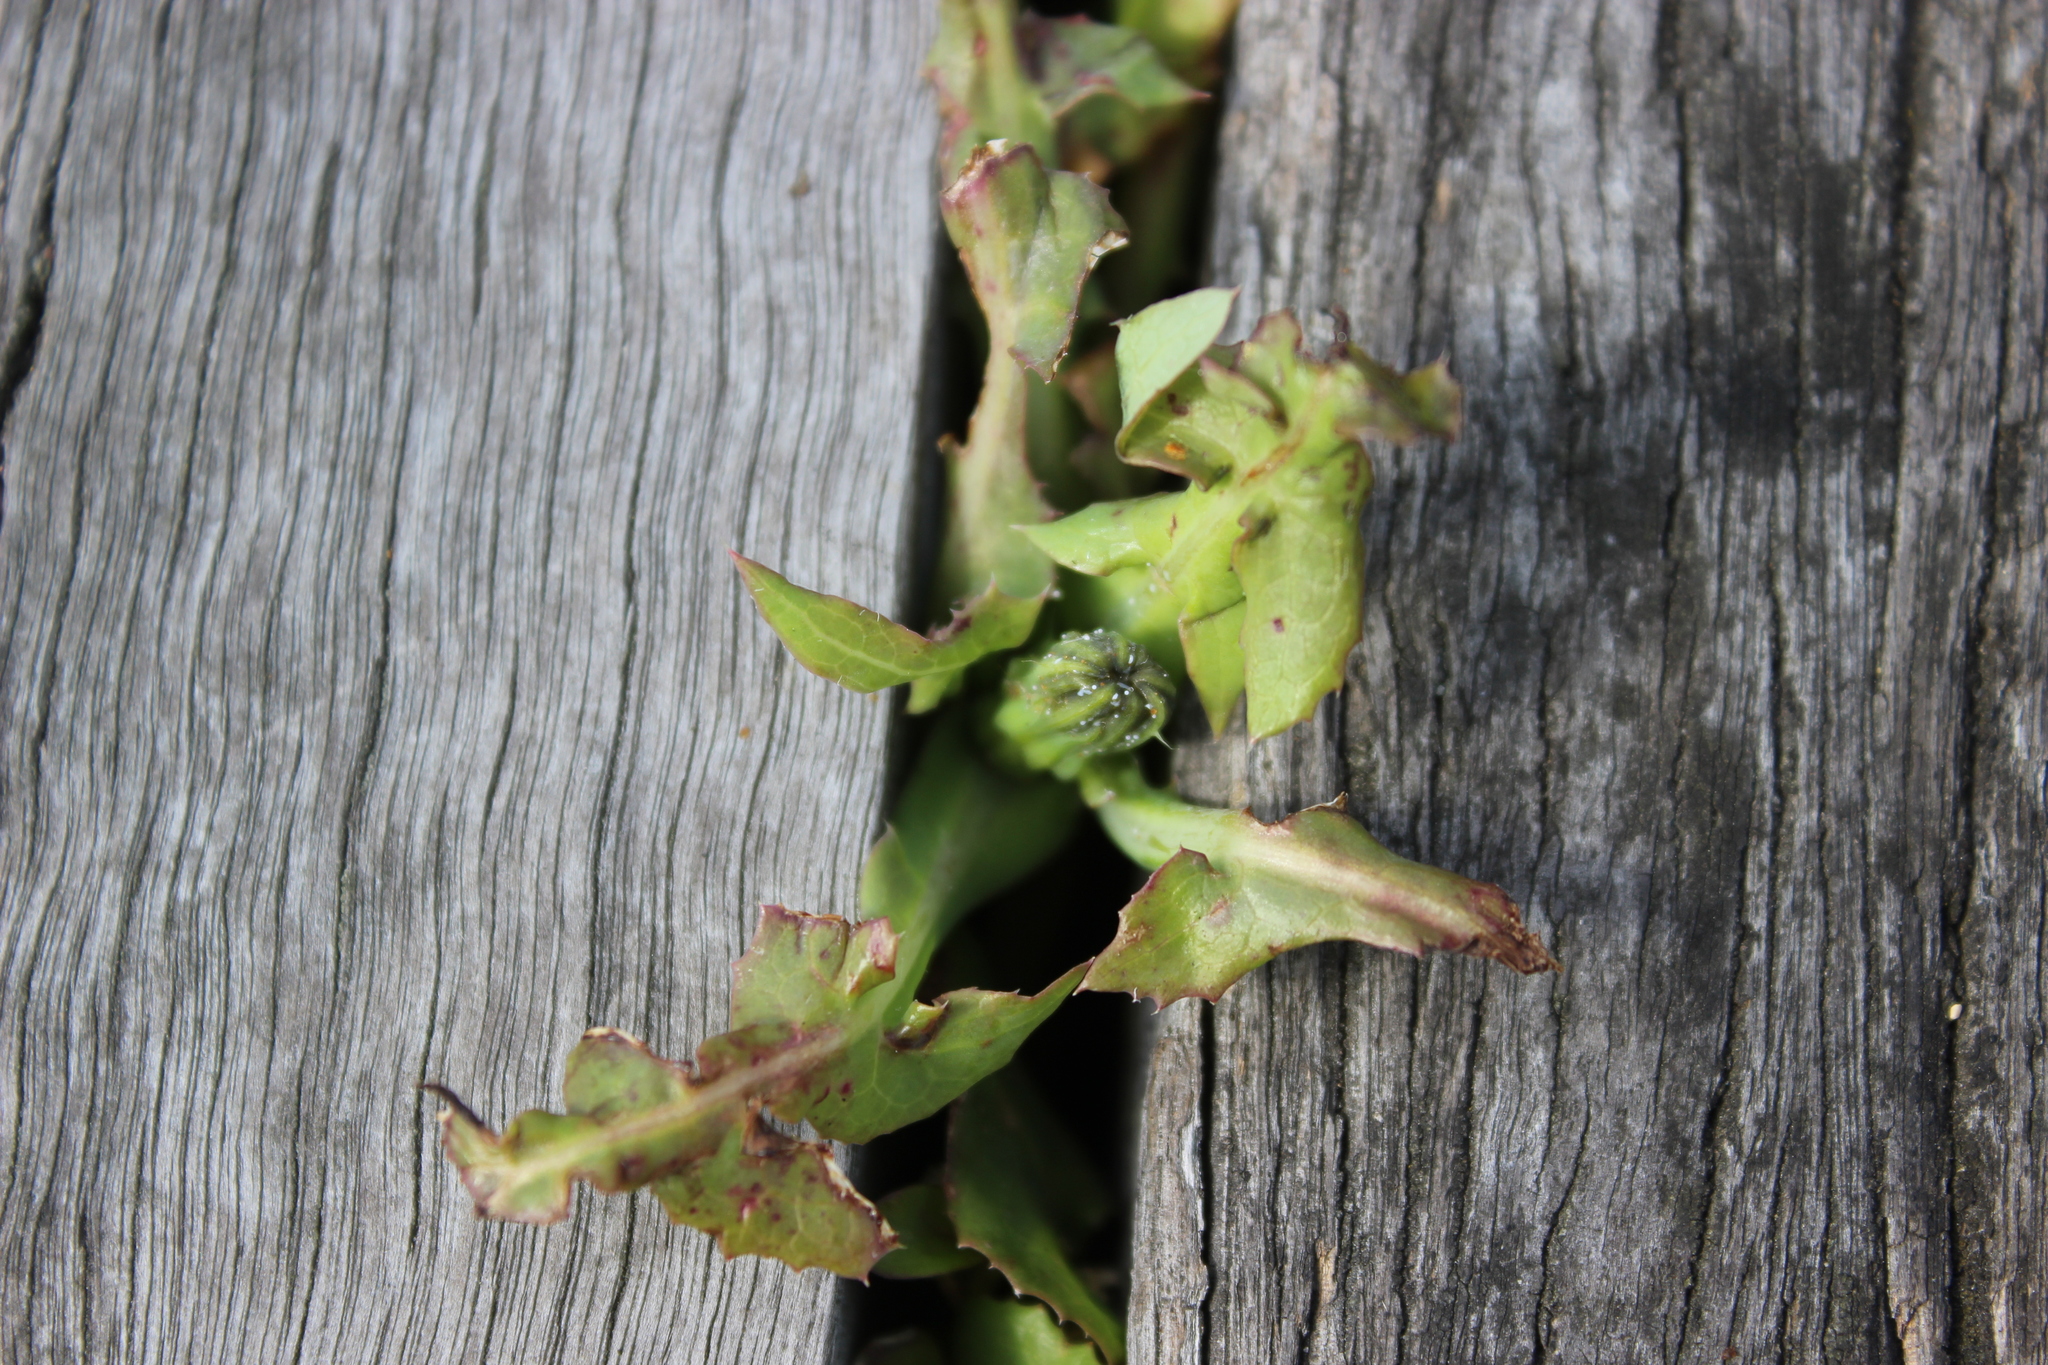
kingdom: Plantae
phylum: Tracheophyta
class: Magnoliopsida
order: Asterales
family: Asteraceae
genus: Sonchus
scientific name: Sonchus oleraceus
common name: Common sowthistle
